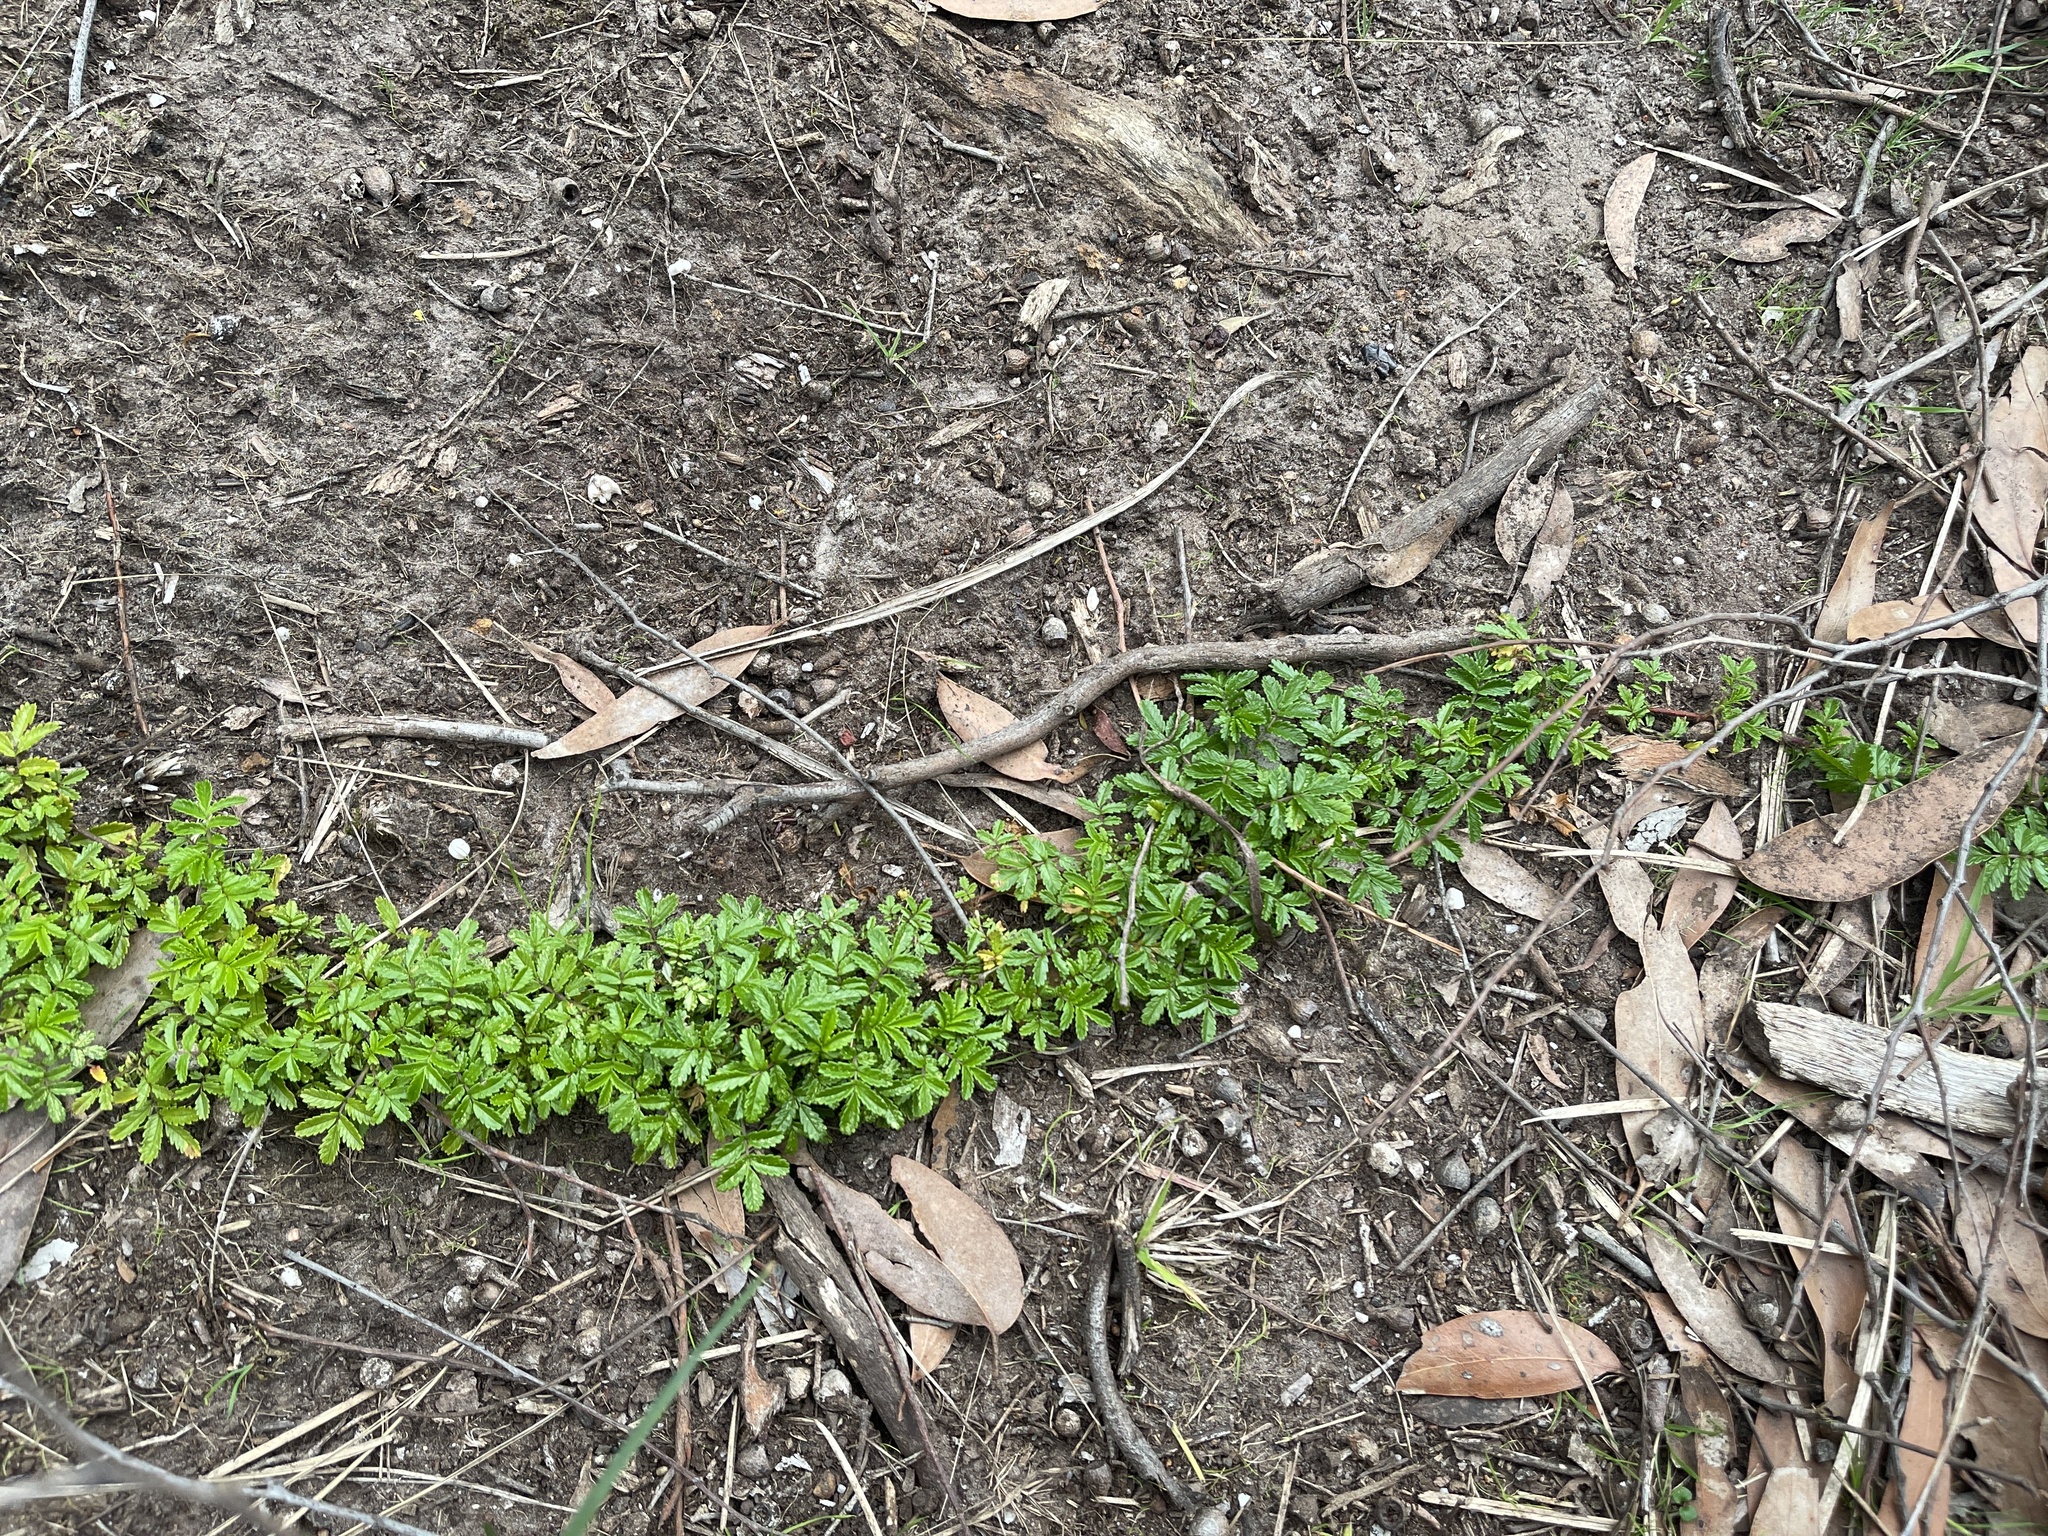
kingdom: Plantae
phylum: Tracheophyta
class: Magnoliopsida
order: Rosales
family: Rosaceae
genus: Acaena
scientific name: Acaena novae-zelandiae
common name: Pirri-pirri-bur
